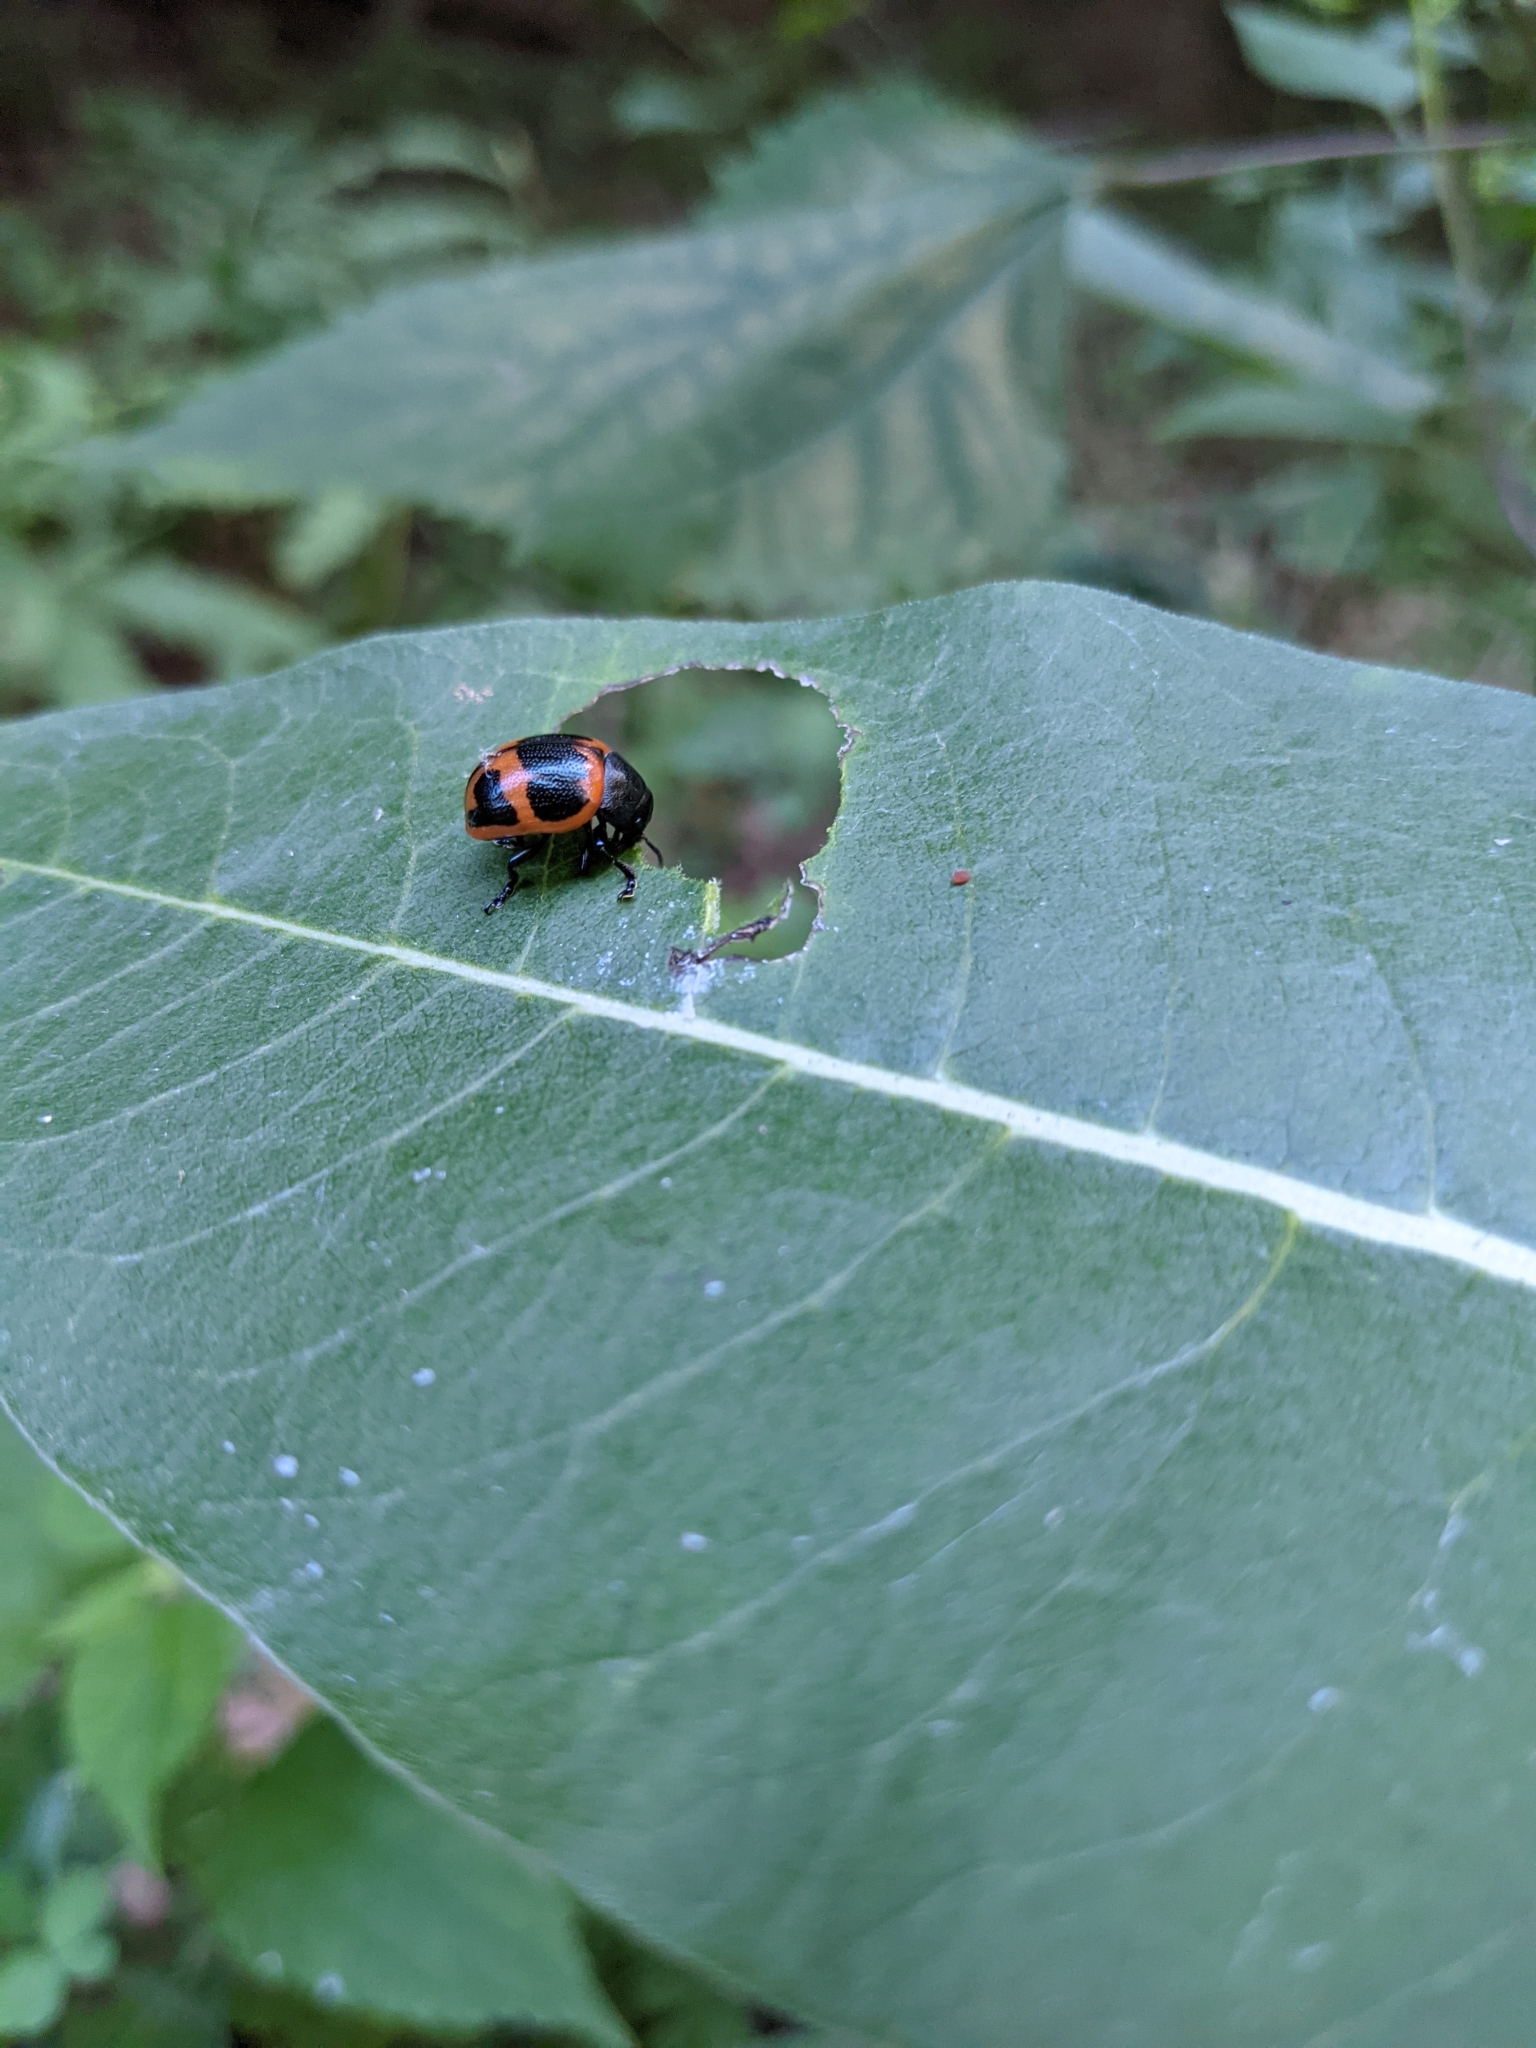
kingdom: Animalia
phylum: Arthropoda
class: Insecta
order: Coleoptera
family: Chrysomelidae
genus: Labidomera
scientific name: Labidomera clivicollis
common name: Swamp milkweed leaf beetle
